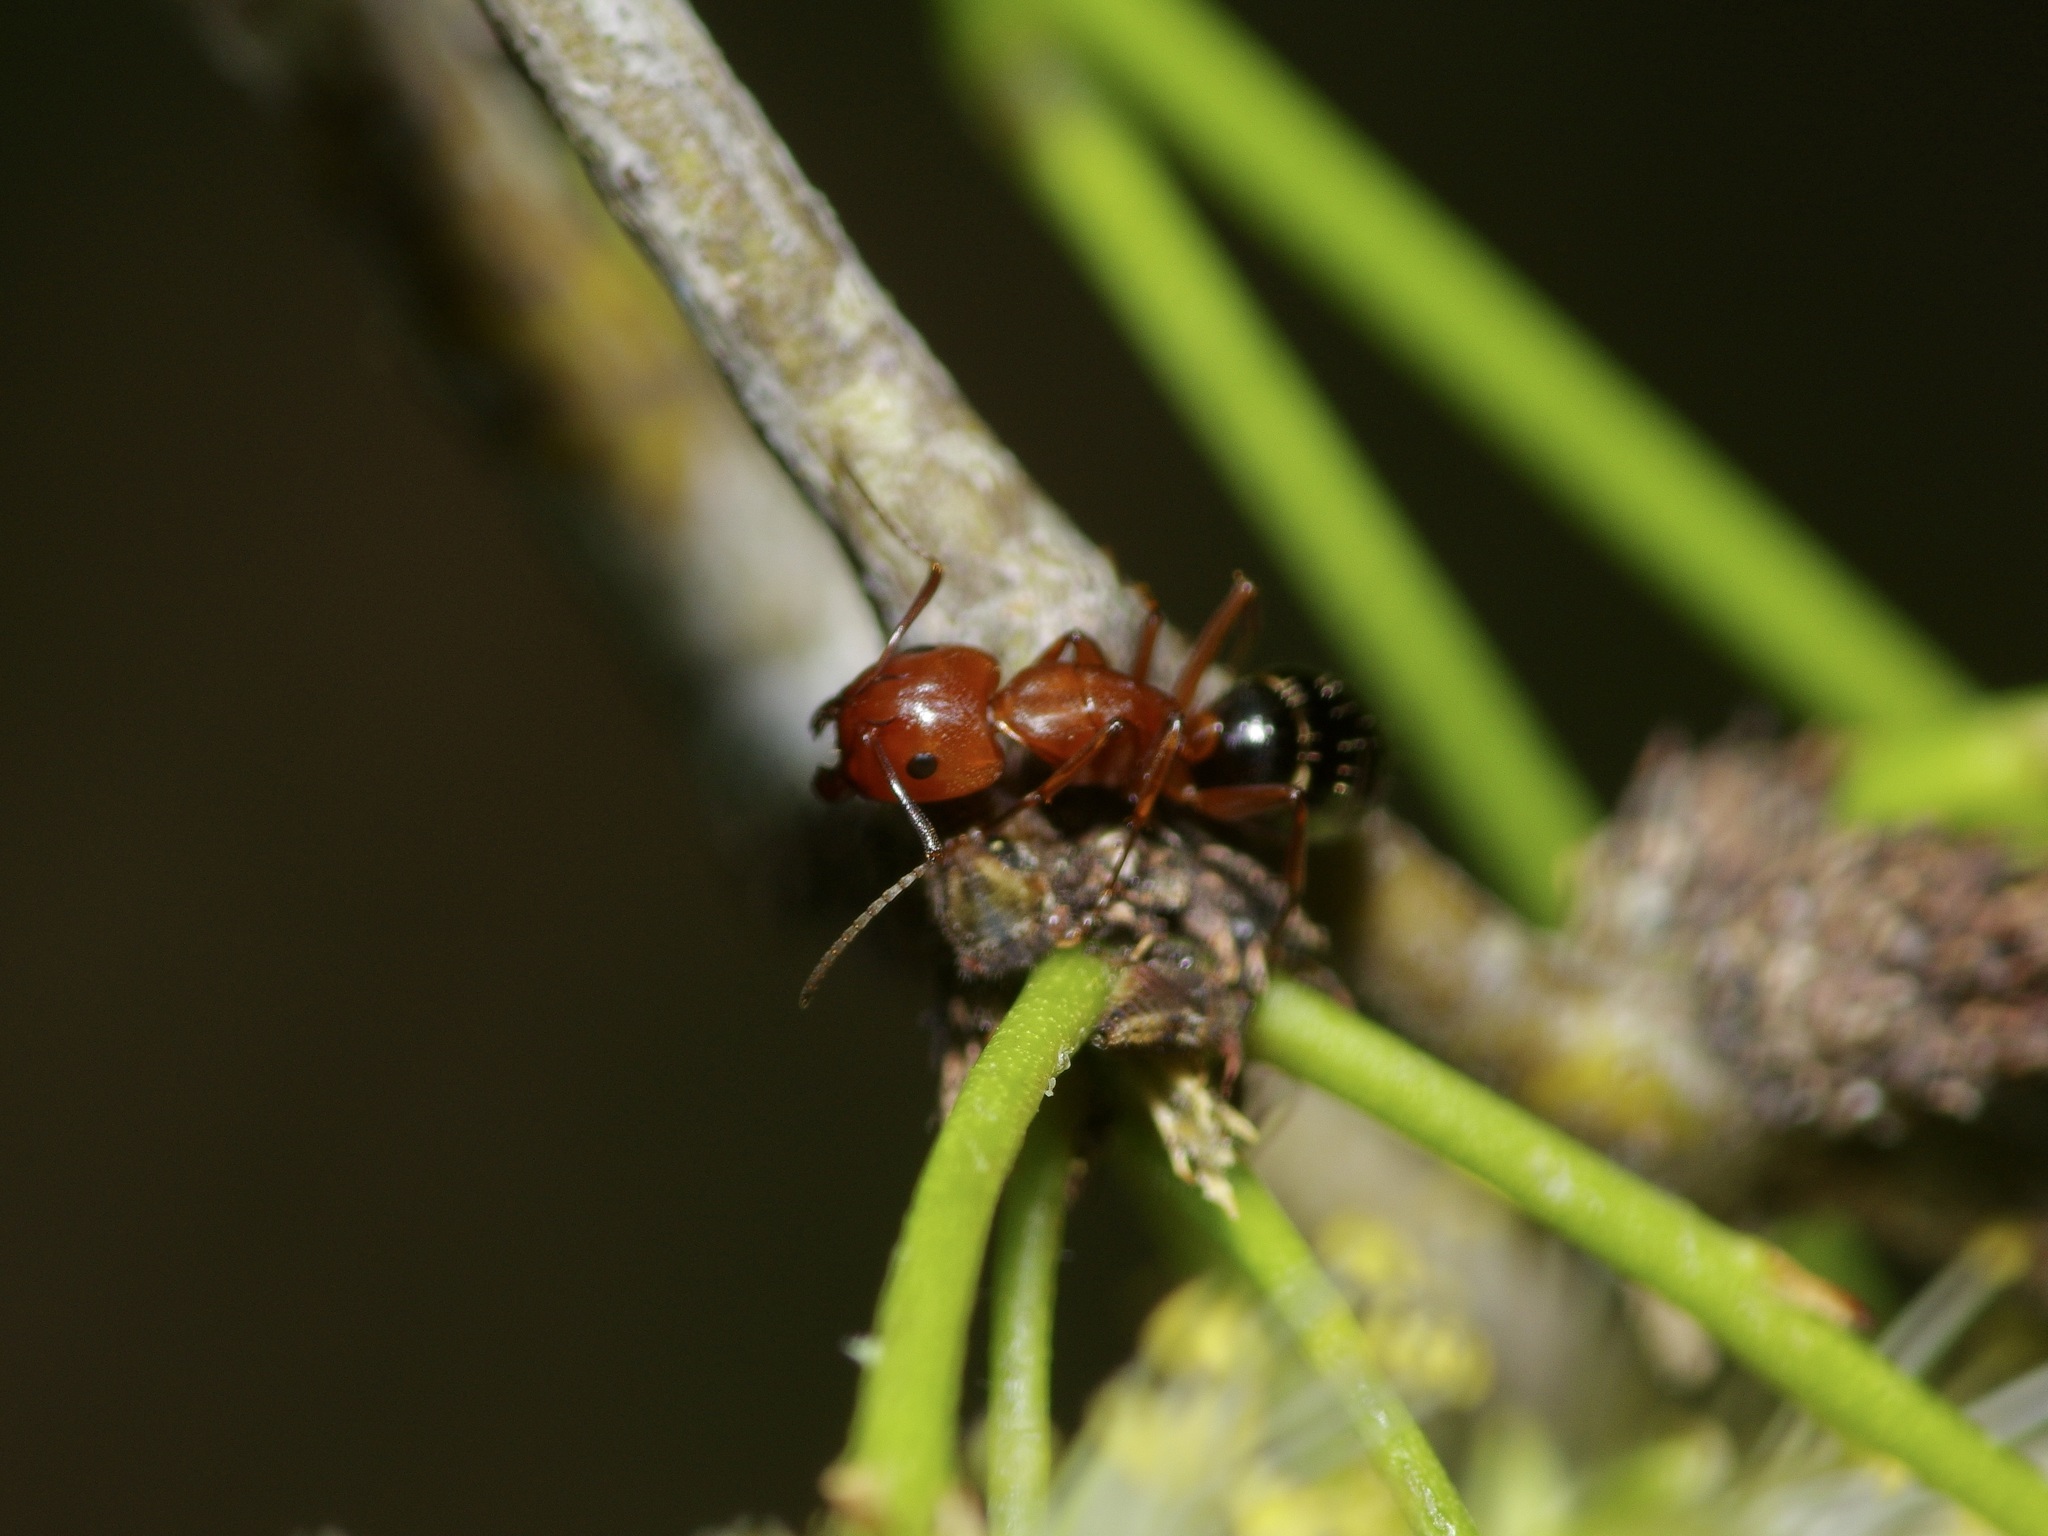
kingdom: Animalia
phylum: Arthropoda
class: Insecta
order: Hymenoptera
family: Formicidae
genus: Camponotus
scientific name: Camponotus decipiens
